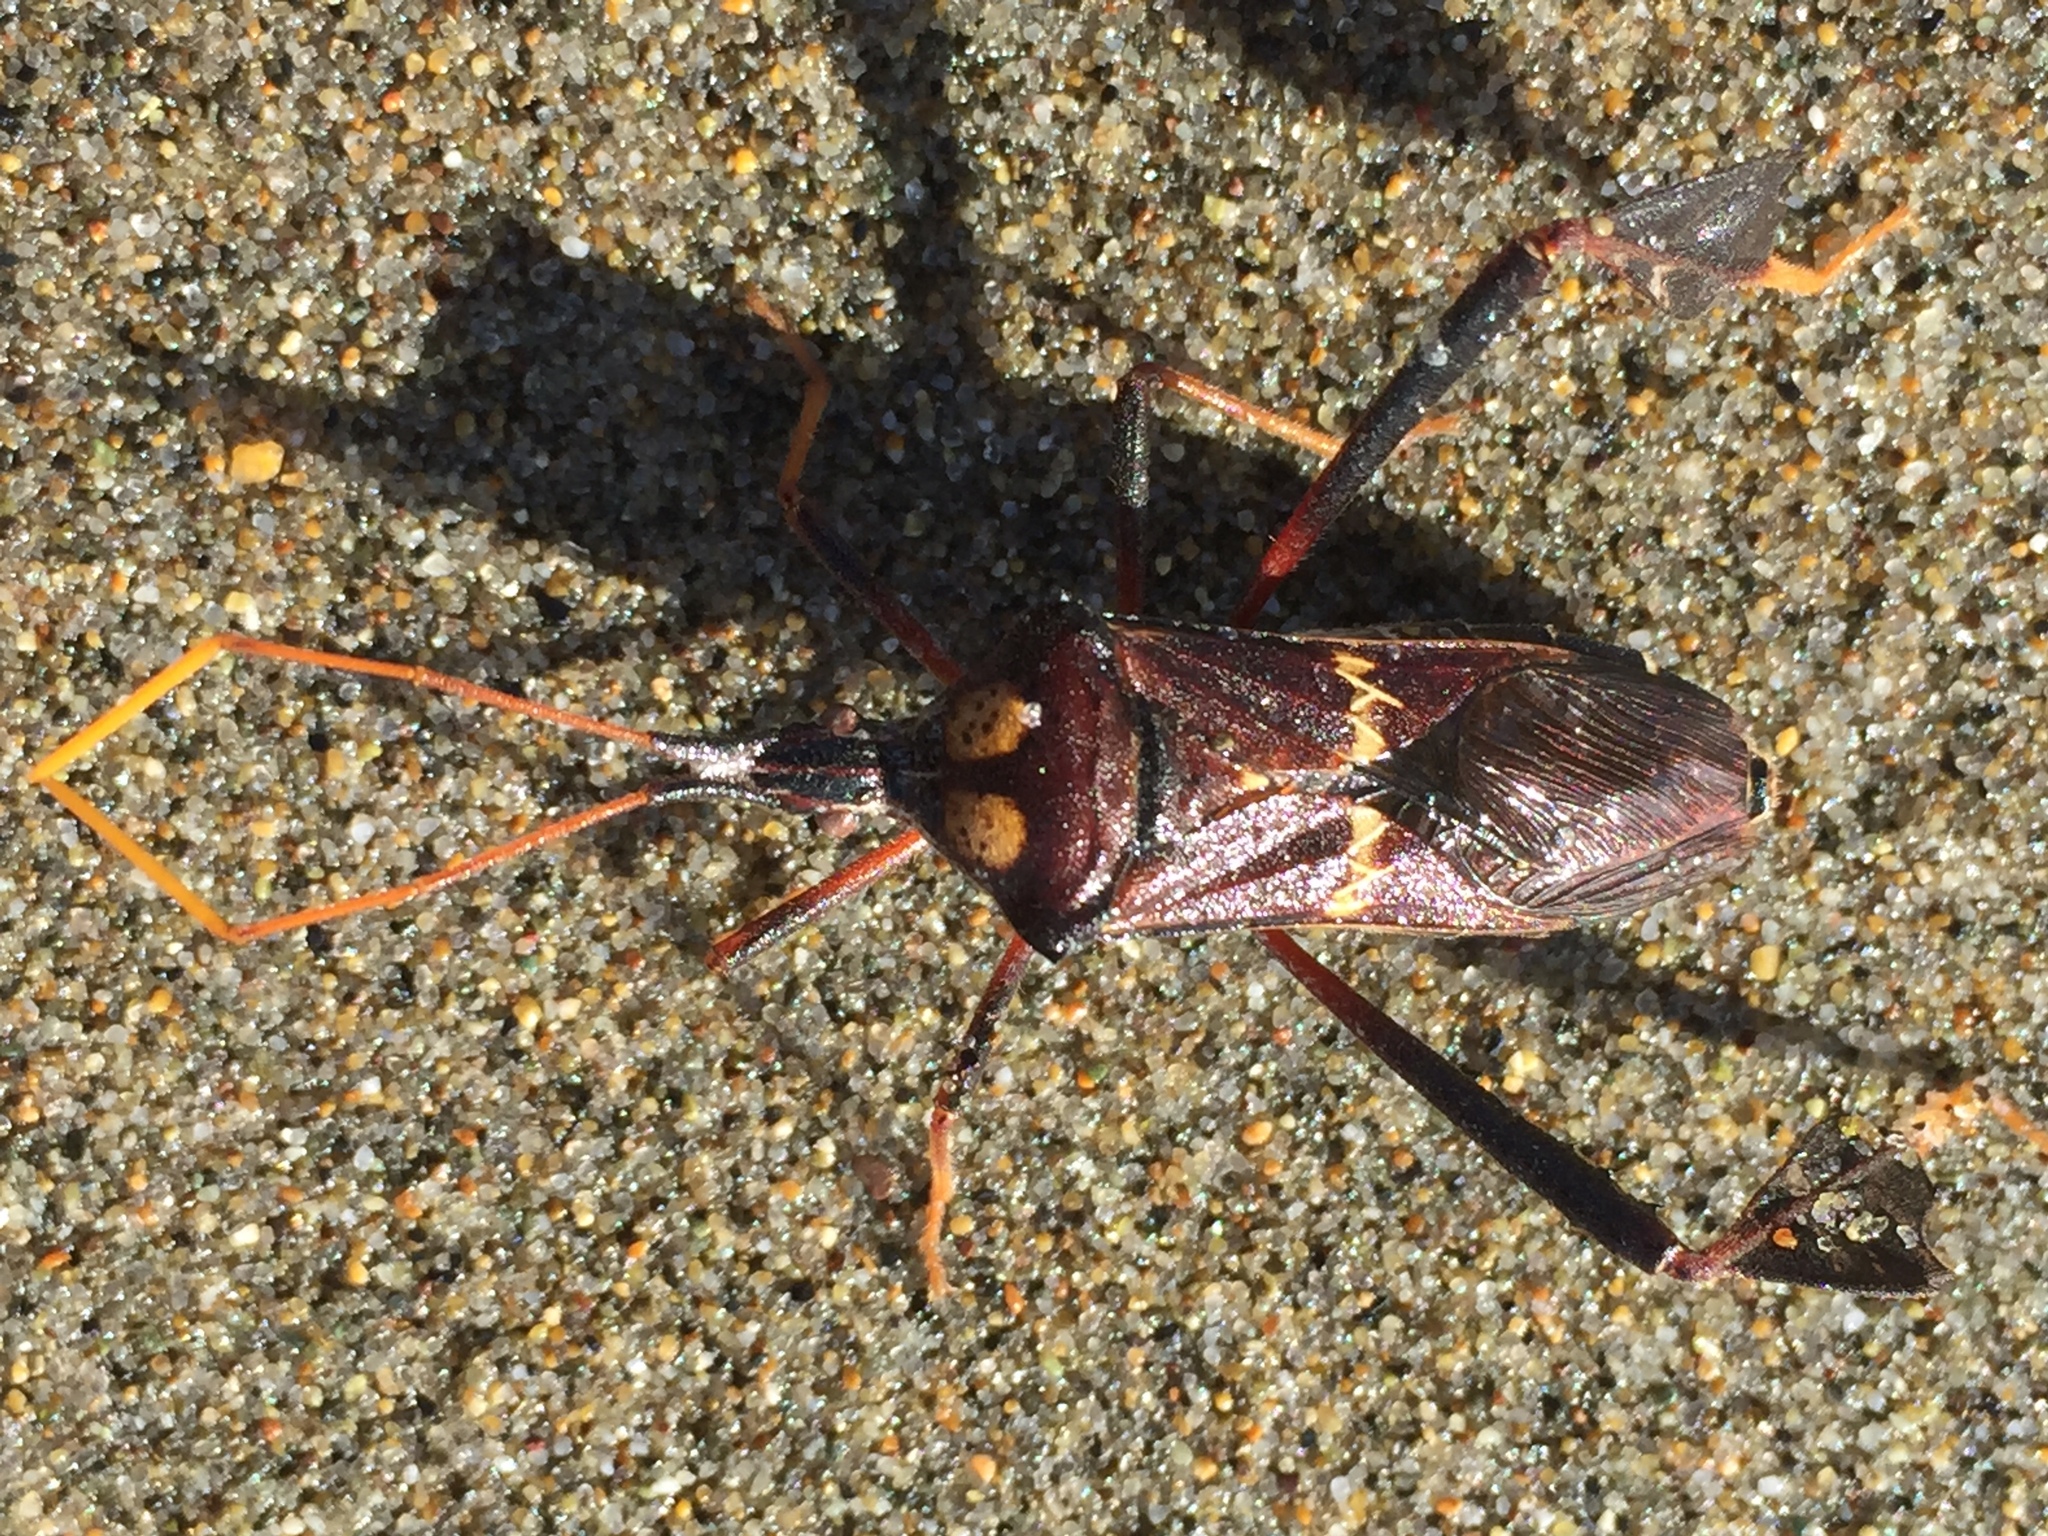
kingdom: Animalia
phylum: Arthropoda
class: Insecta
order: Hemiptera
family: Coreidae
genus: Leptoglossus
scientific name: Leptoglossus zonatus
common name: Large-legged bug
